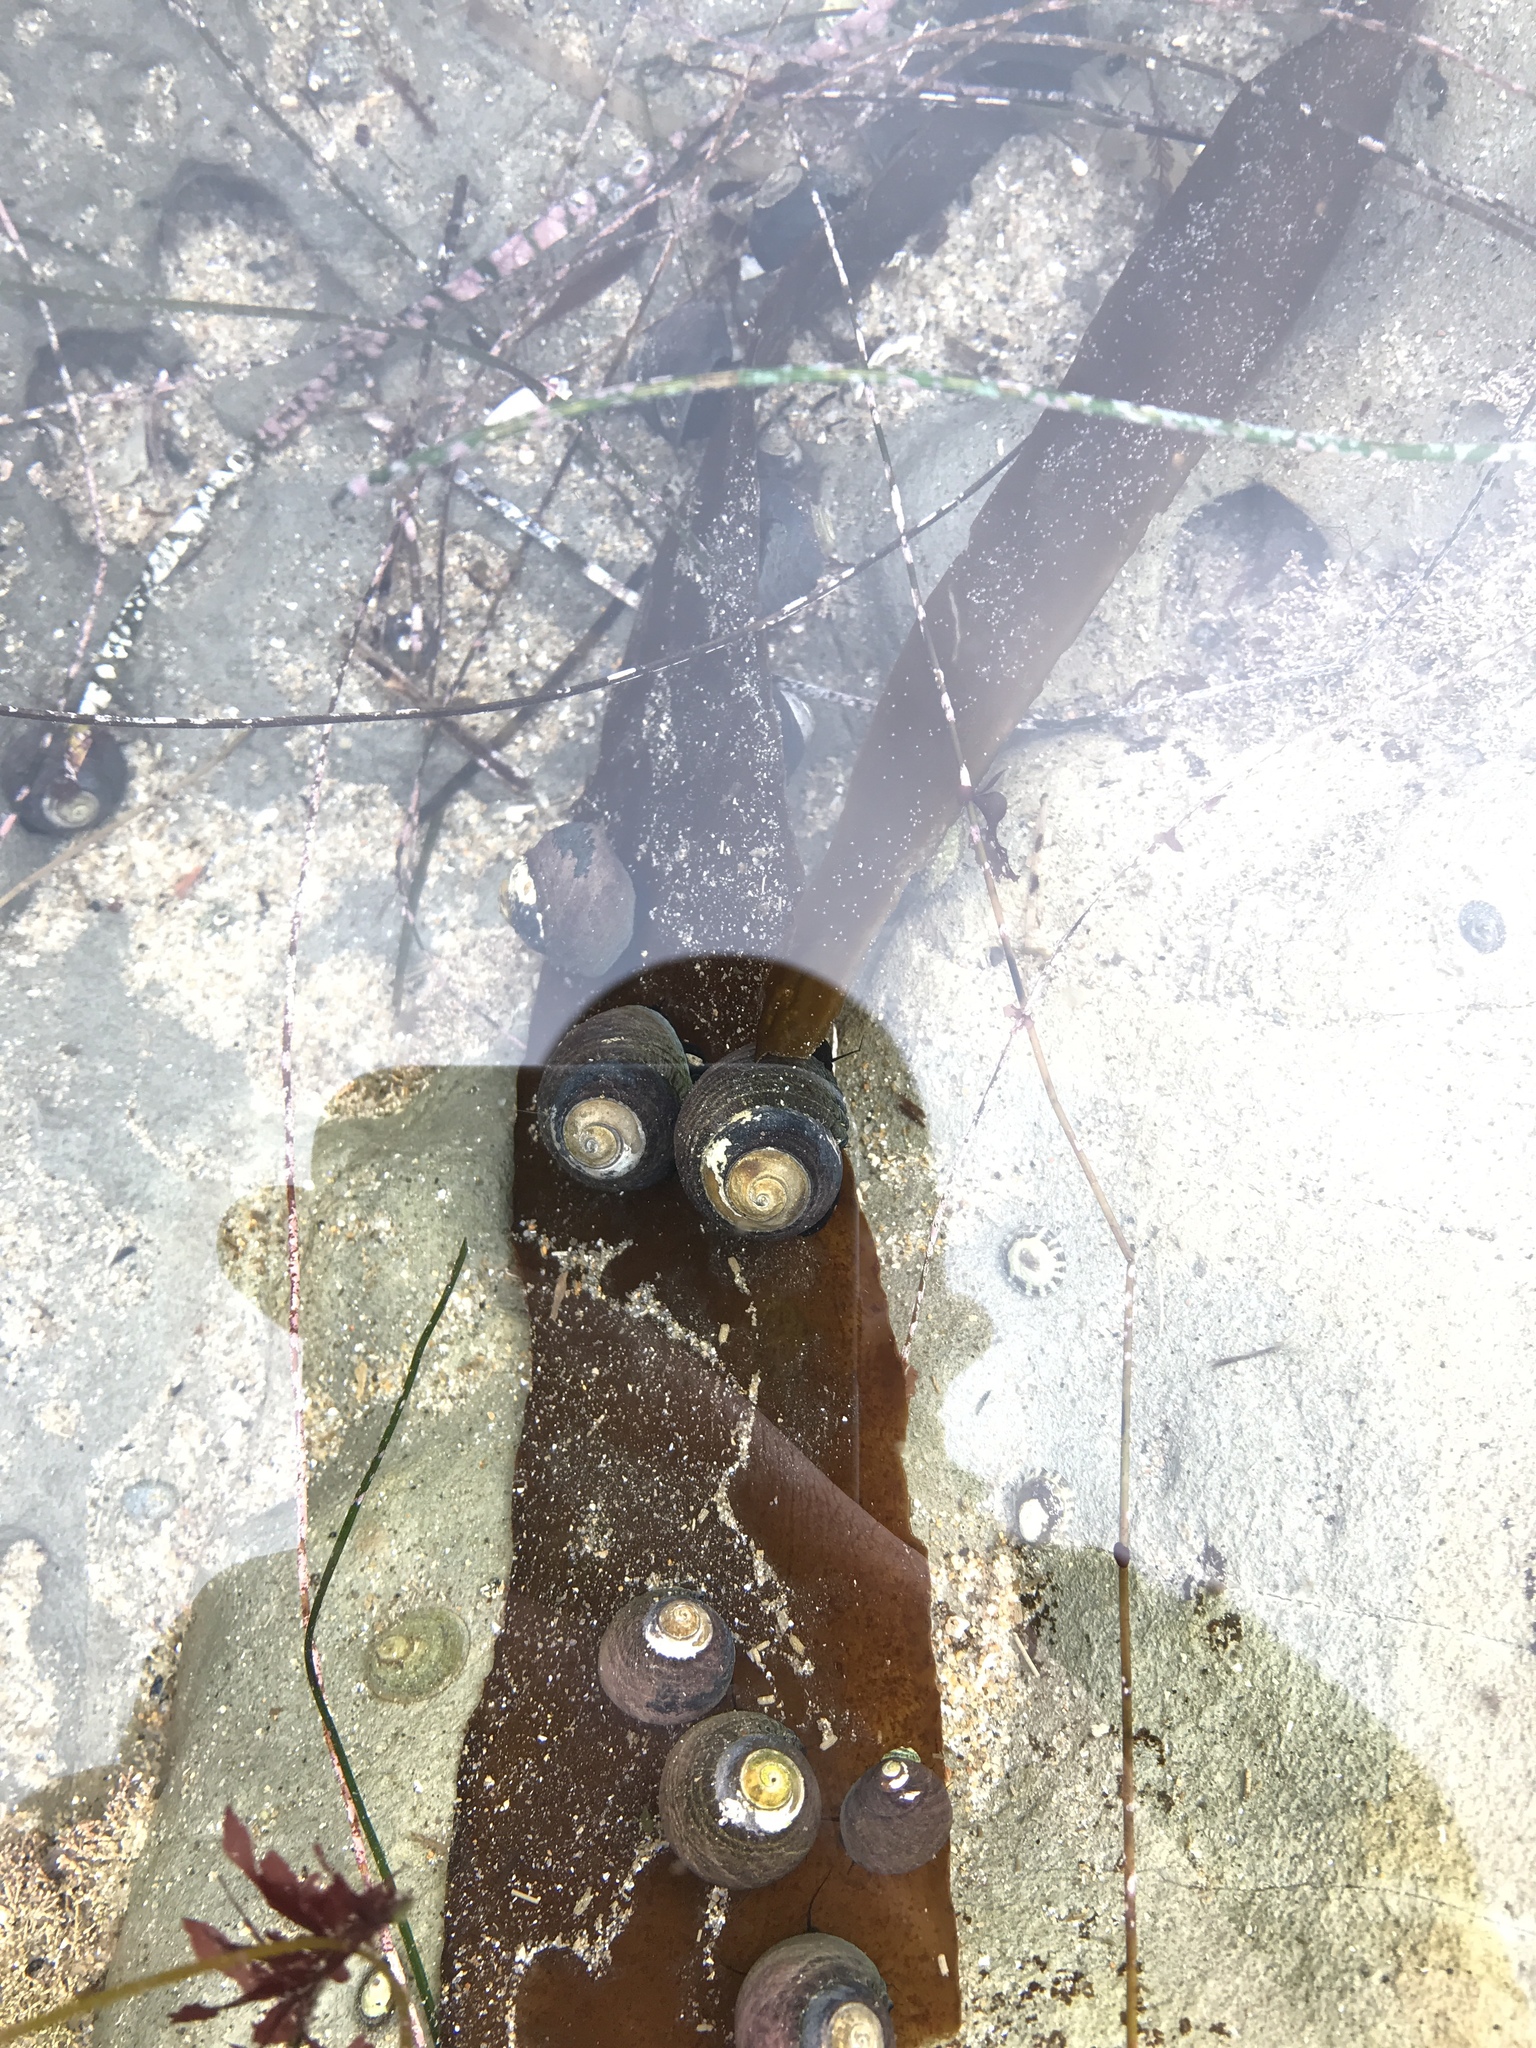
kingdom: Animalia
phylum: Mollusca
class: Gastropoda
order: Trochida
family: Tegulidae
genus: Tegula
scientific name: Tegula funebralis
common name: Black tegula
